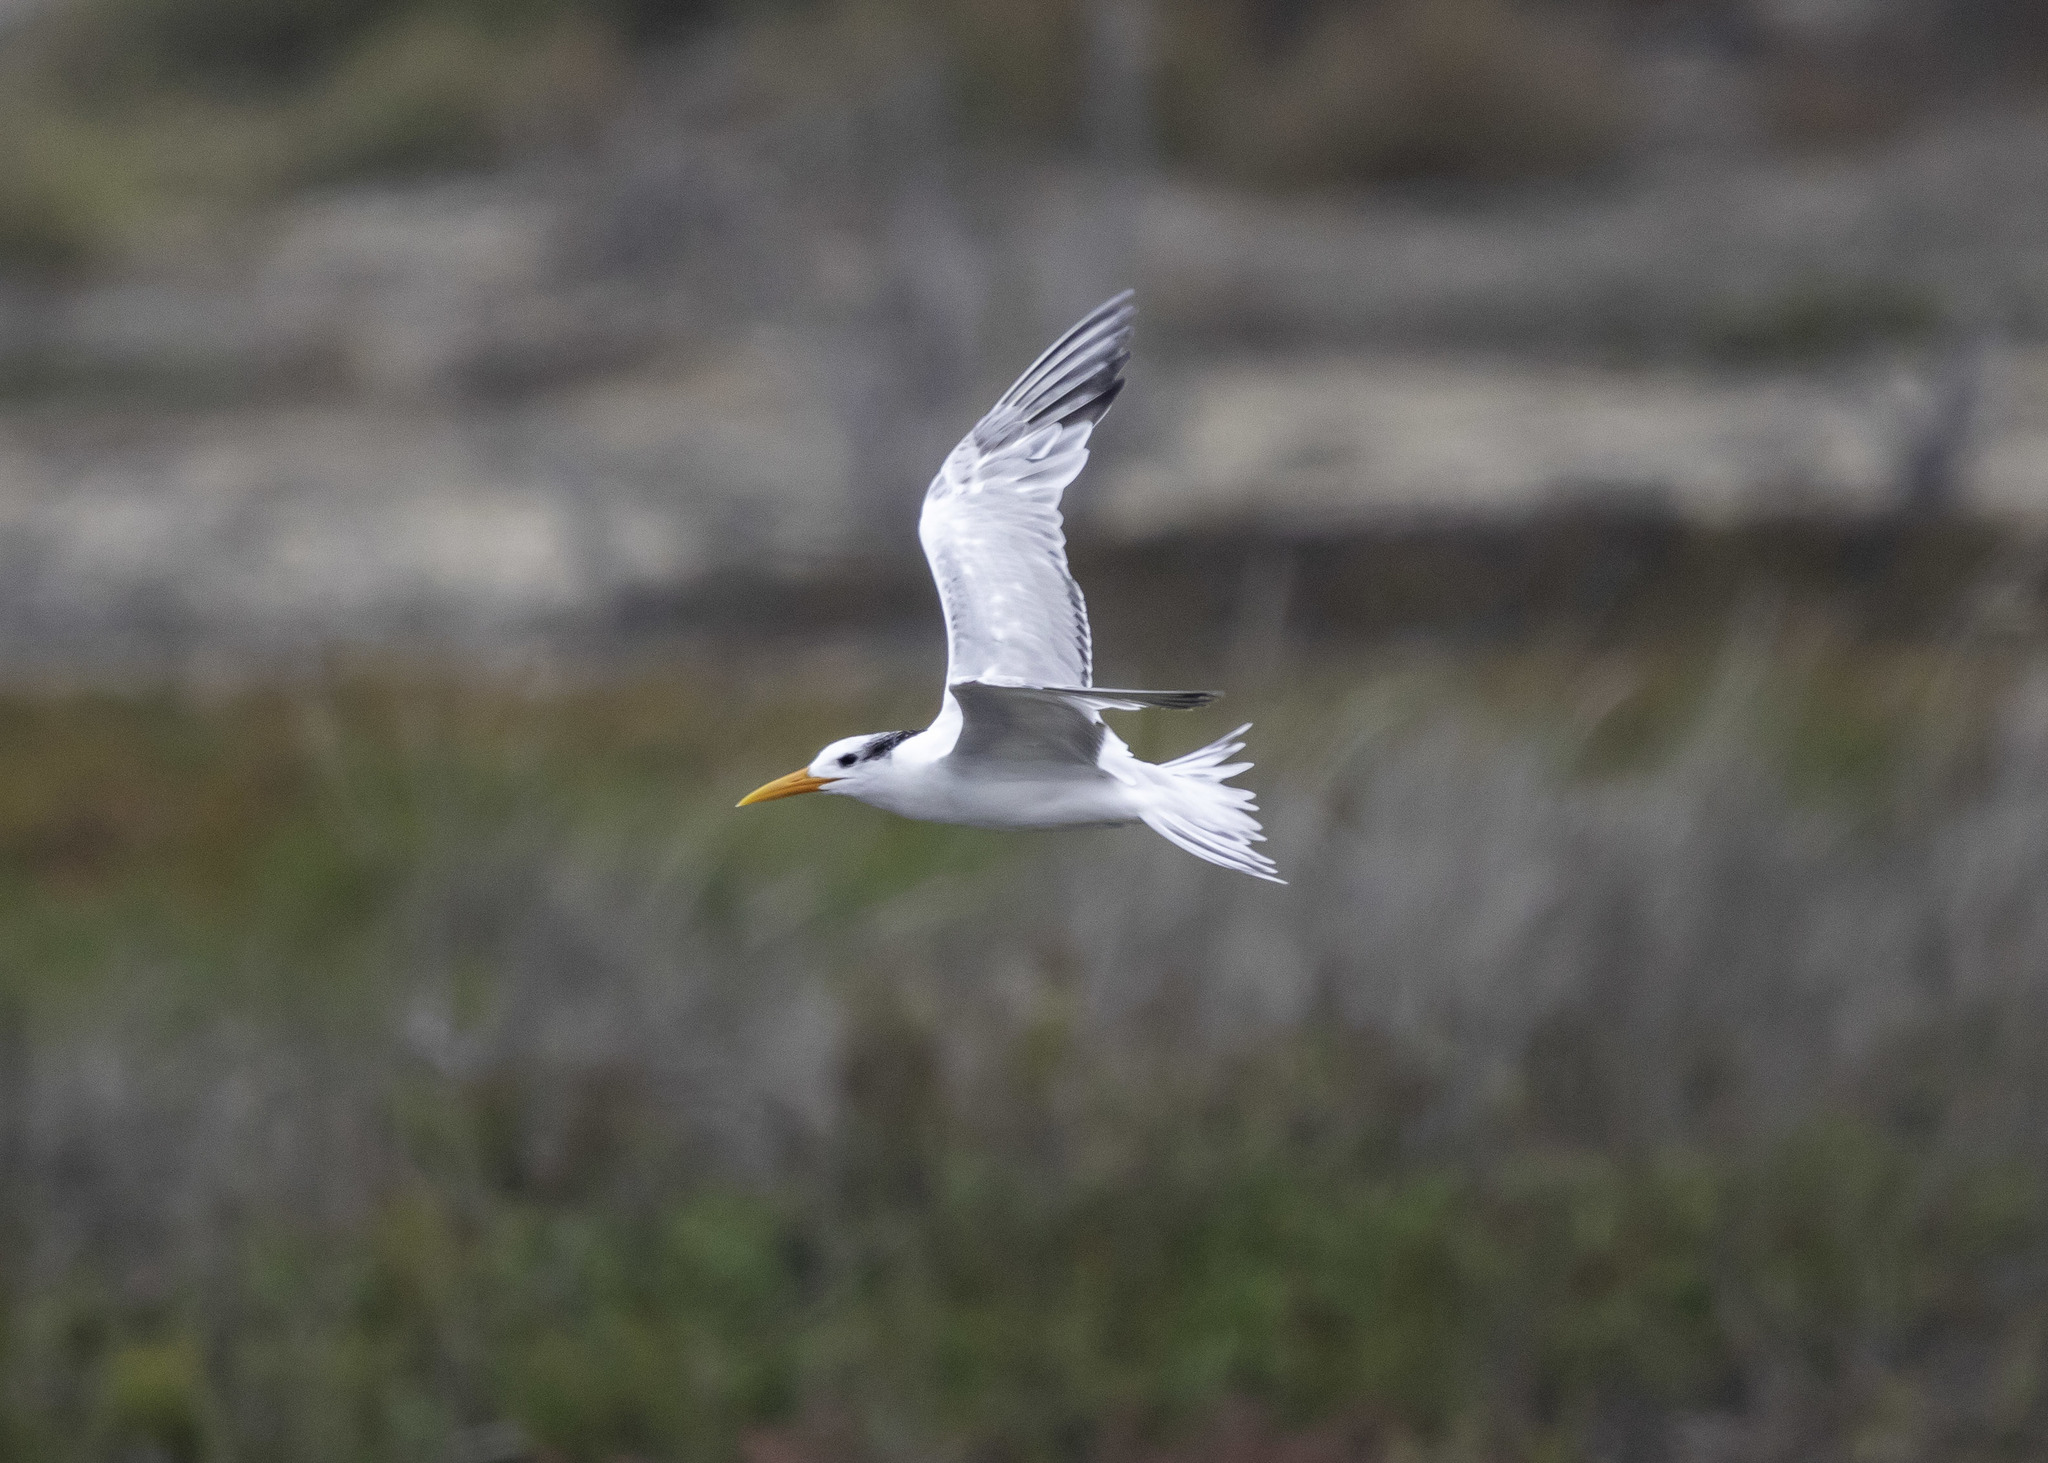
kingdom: Animalia
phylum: Chordata
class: Aves
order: Charadriiformes
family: Laridae
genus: Thalasseus
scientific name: Thalasseus maximus
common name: Royal tern
